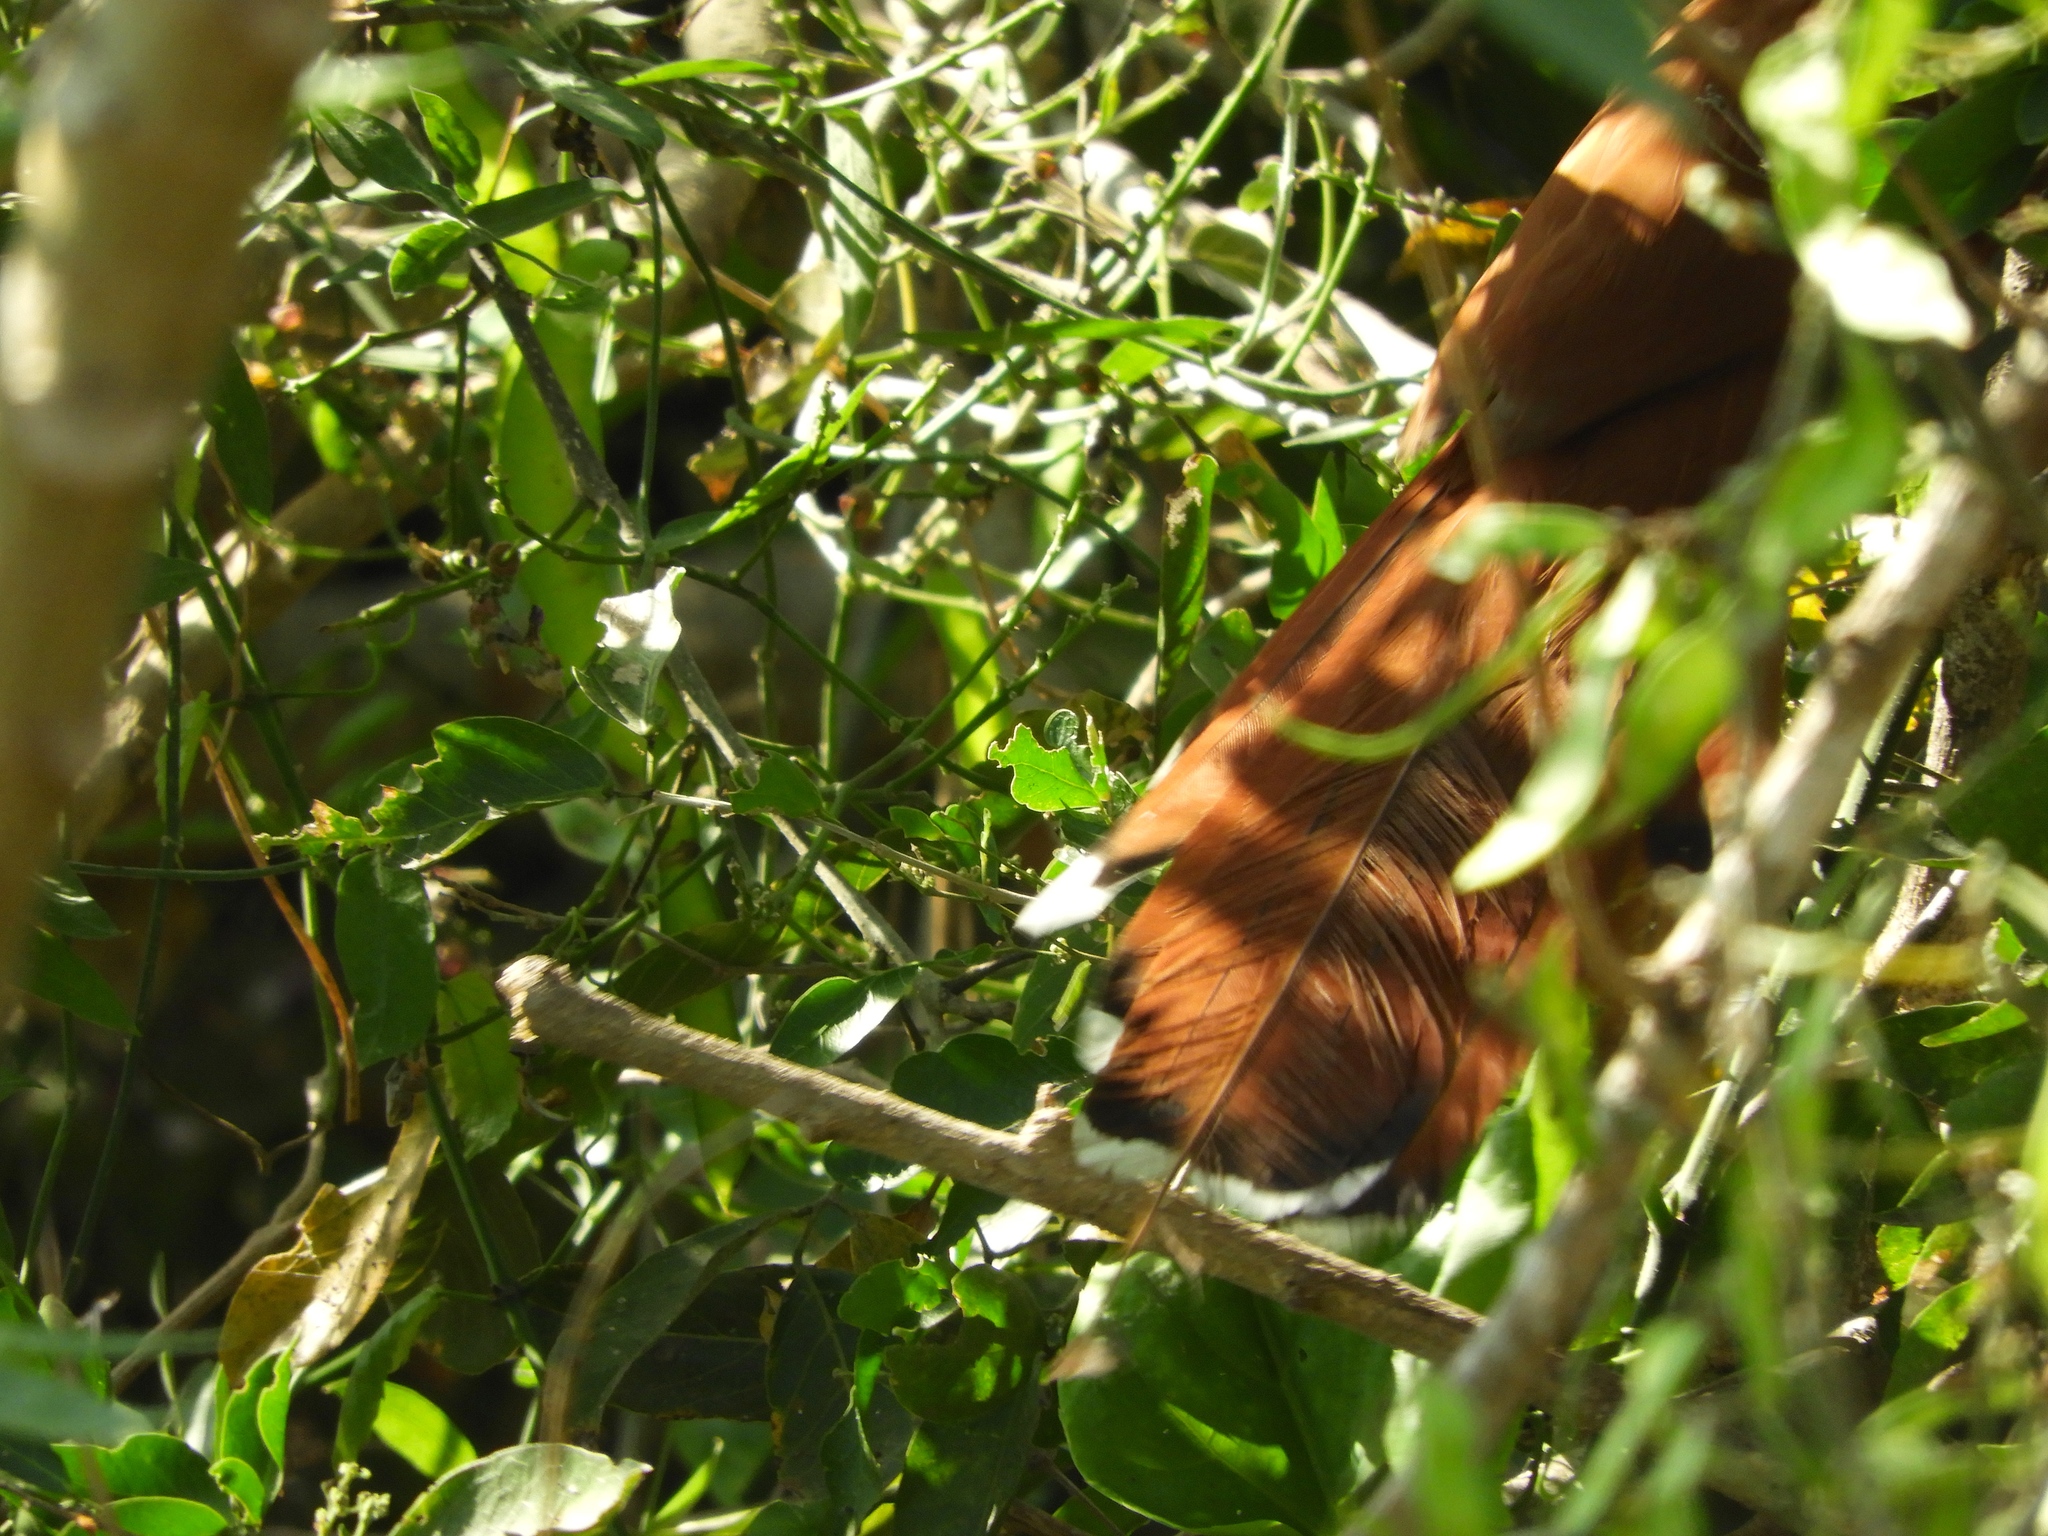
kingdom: Animalia
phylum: Chordata
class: Aves
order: Cuculiformes
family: Cuculidae
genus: Piaya
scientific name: Piaya cayana
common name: Squirrel cuckoo
